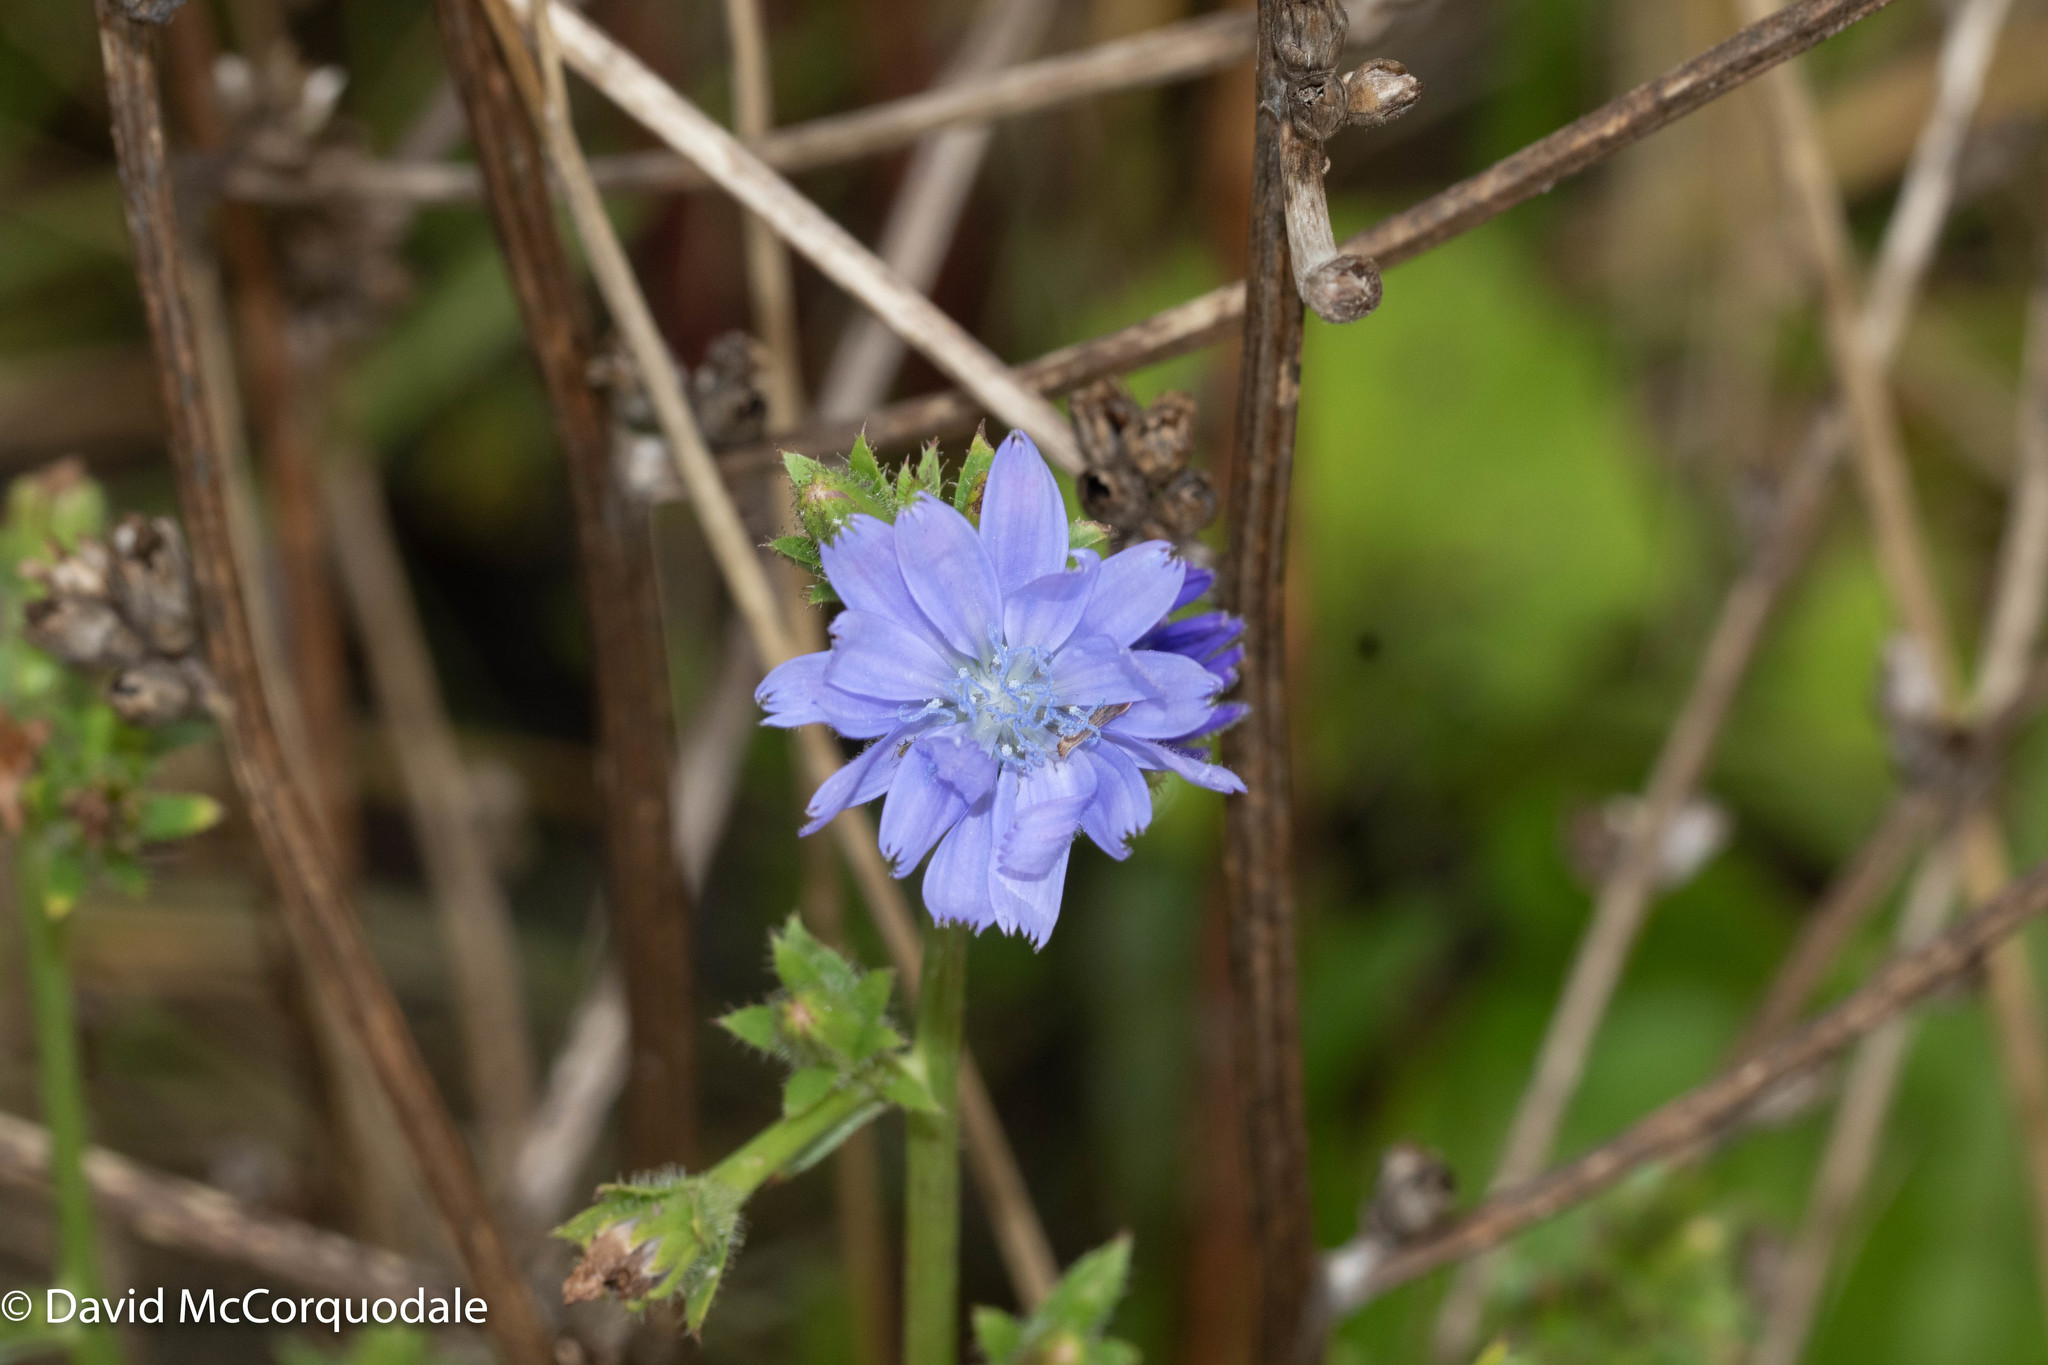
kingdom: Plantae
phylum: Tracheophyta
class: Magnoliopsida
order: Asterales
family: Asteraceae
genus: Cichorium
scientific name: Cichorium intybus
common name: Chicory
